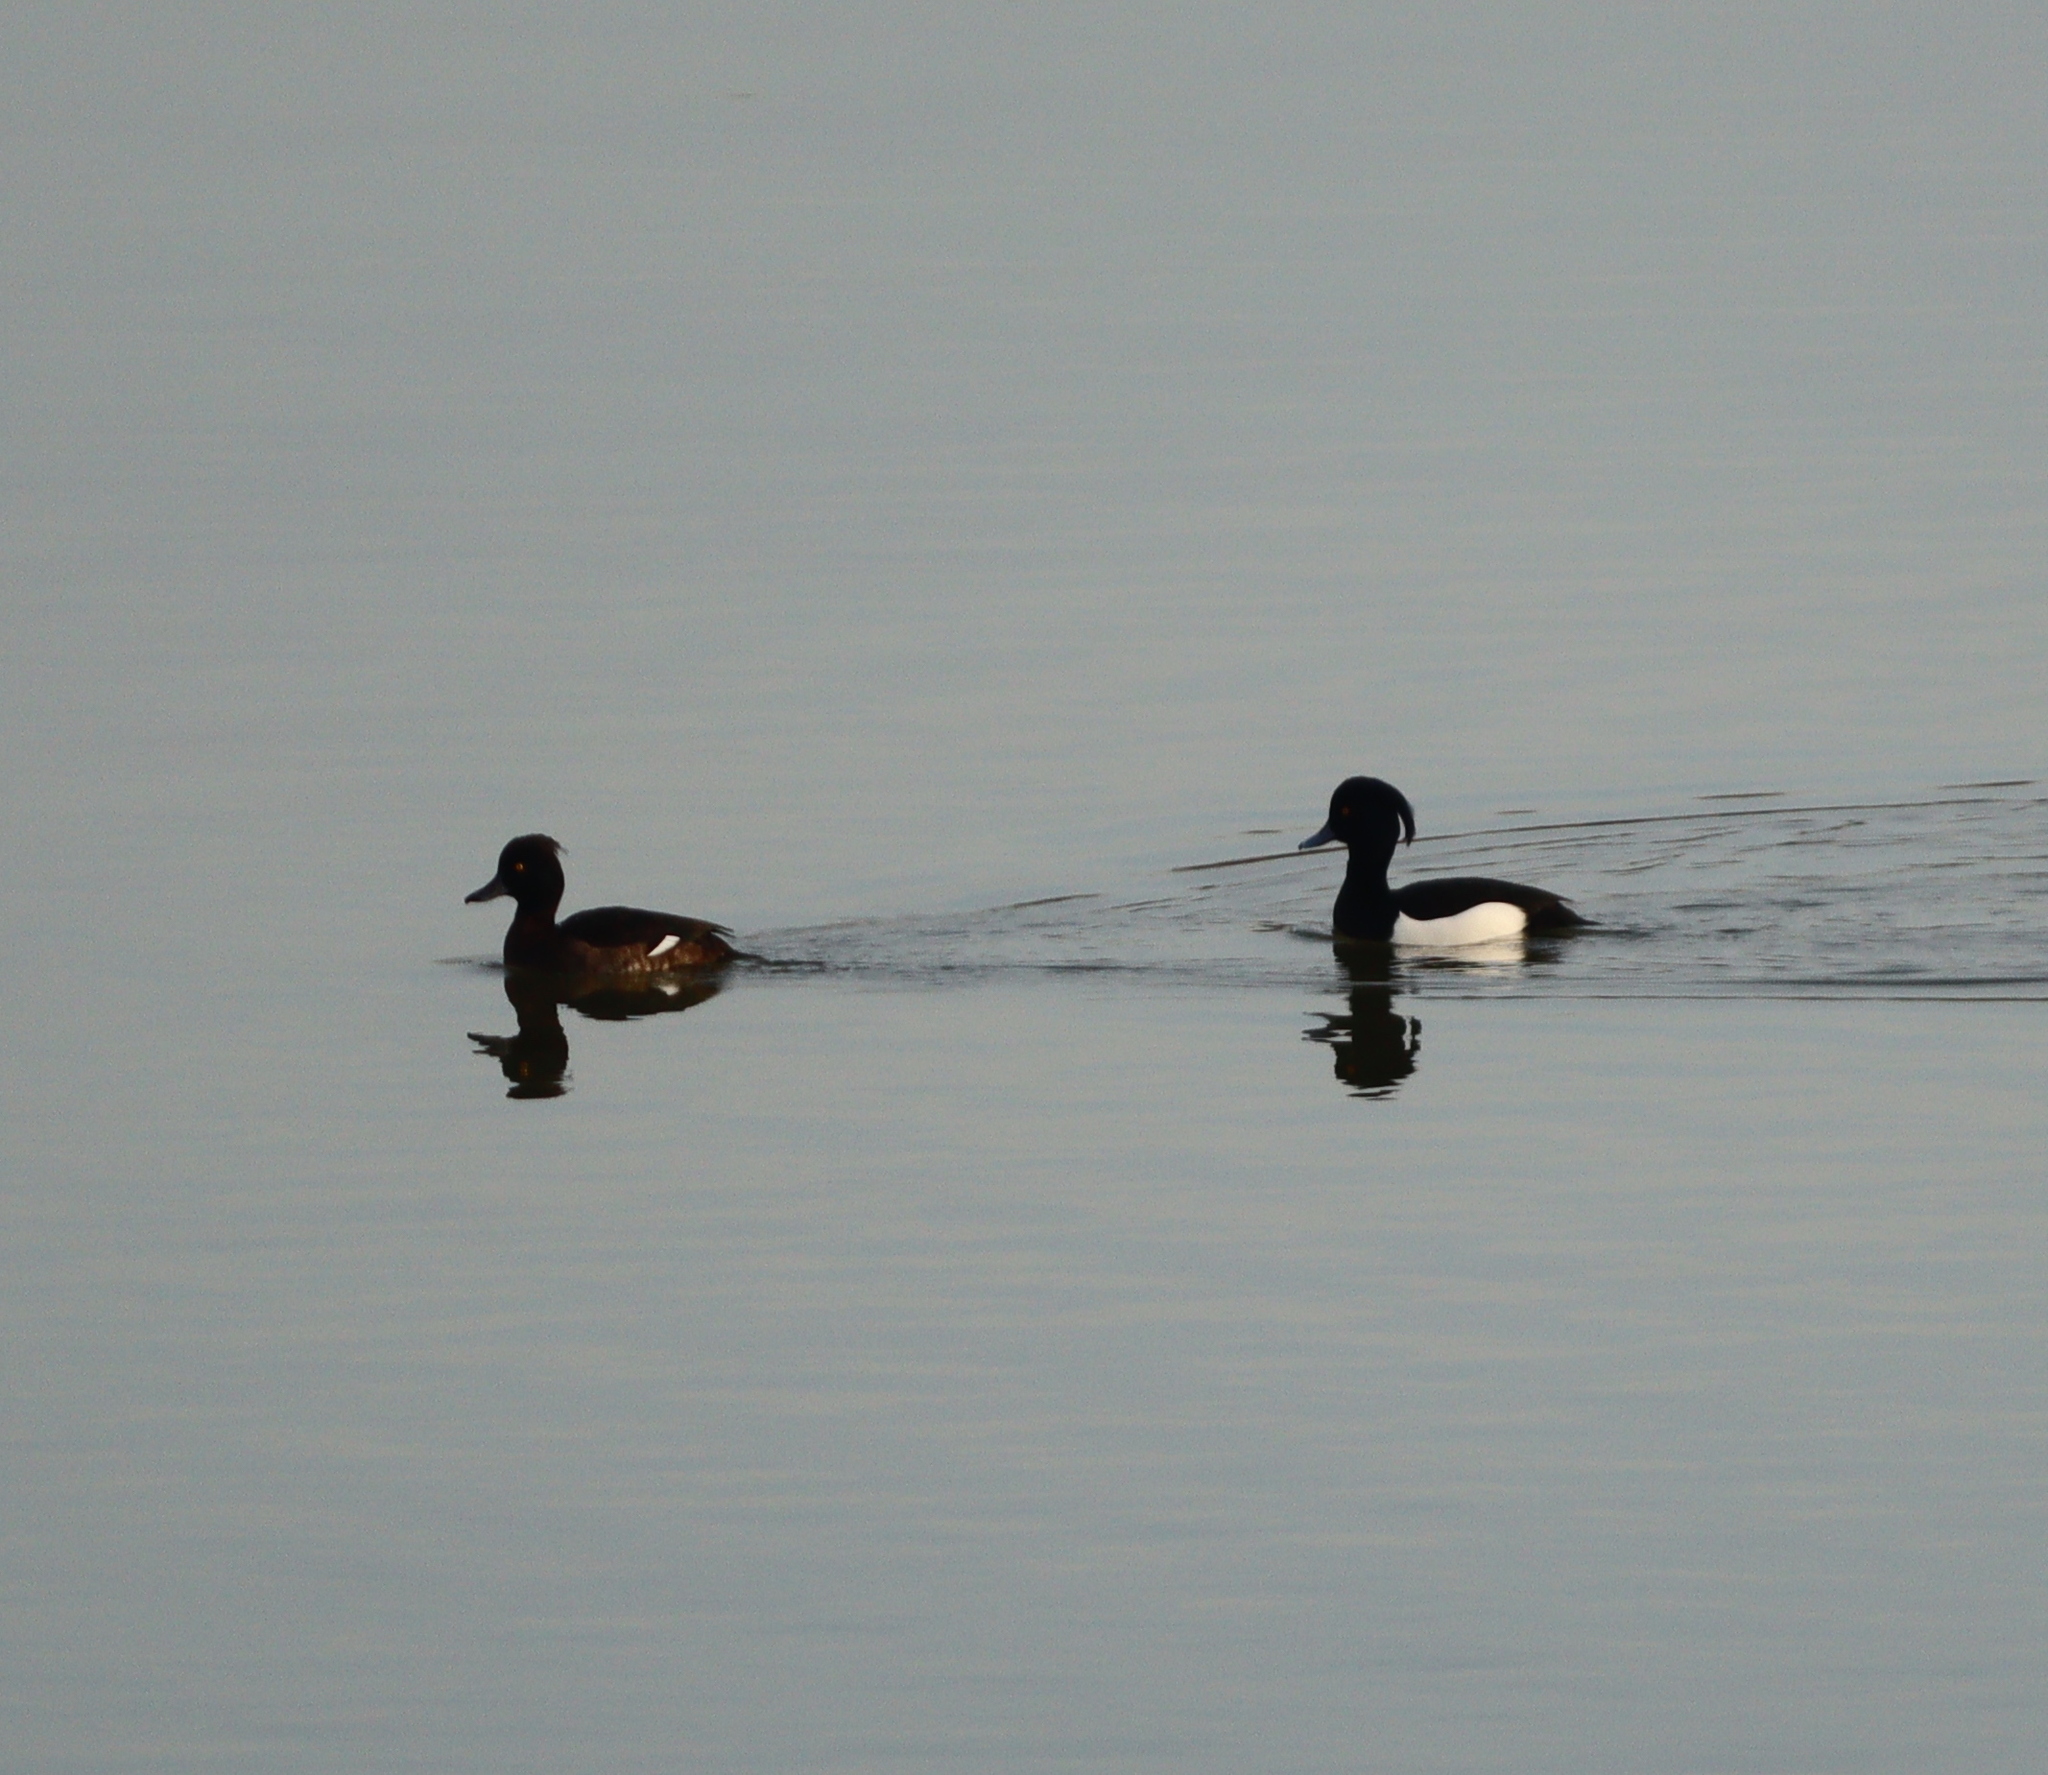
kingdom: Animalia
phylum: Chordata
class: Aves
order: Anseriformes
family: Anatidae
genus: Aythya
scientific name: Aythya fuligula
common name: Tufted duck
